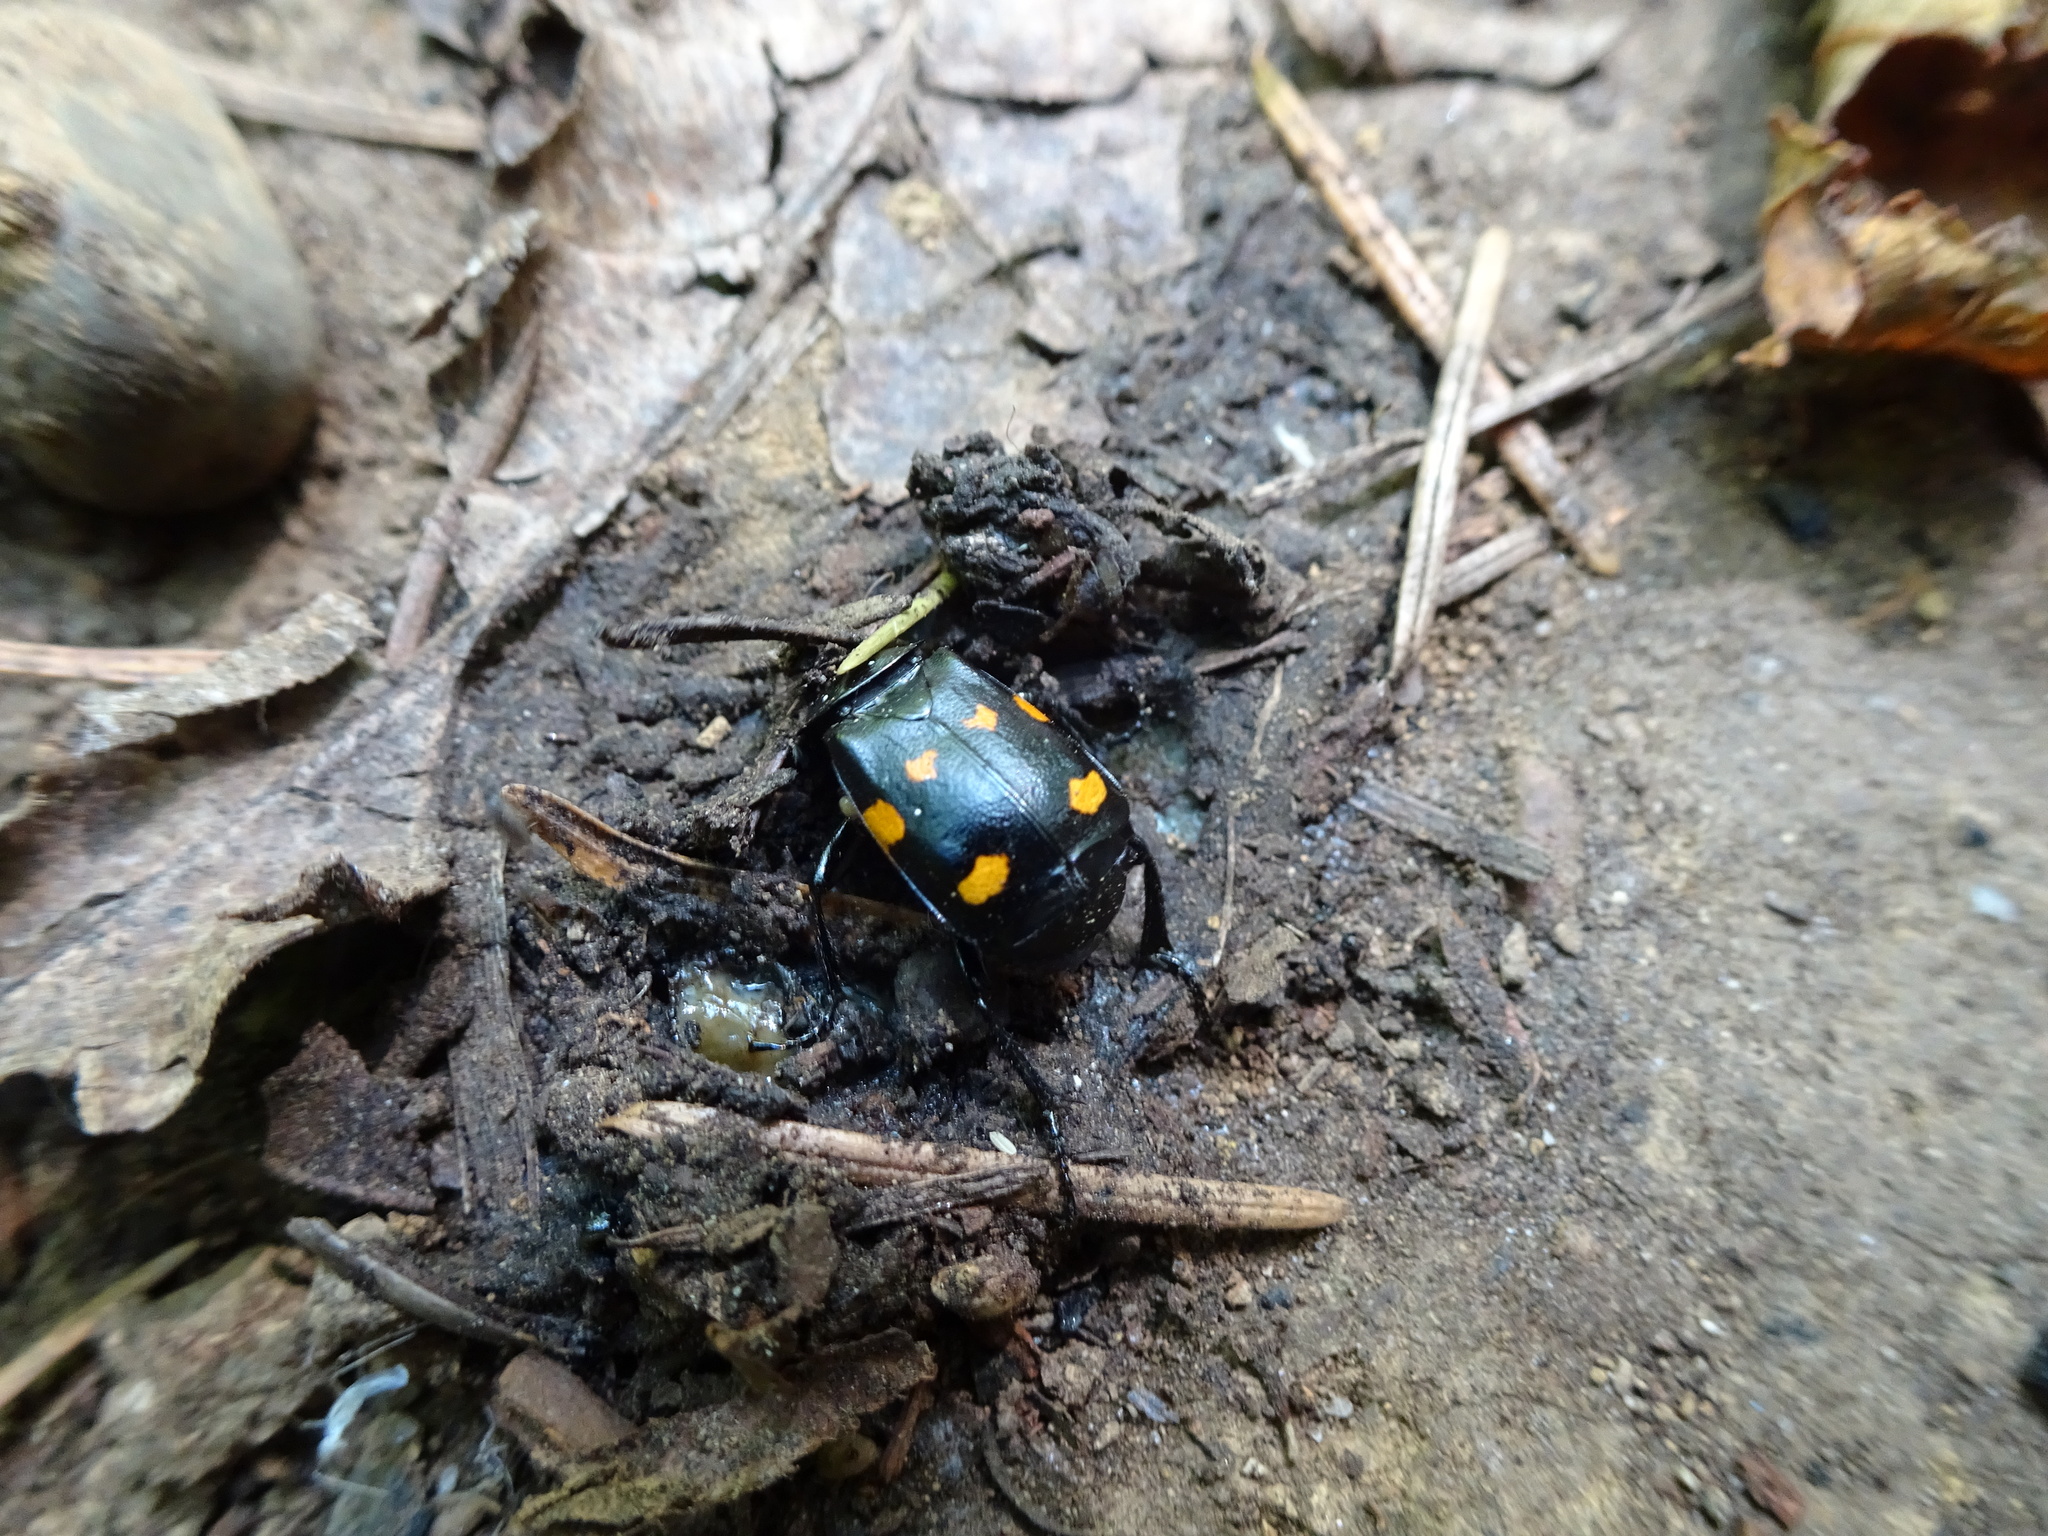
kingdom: Animalia
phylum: Arthropoda
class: Insecta
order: Coleoptera
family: Staphylinidae
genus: Nicrophorus
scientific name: Nicrophorus defodiens
